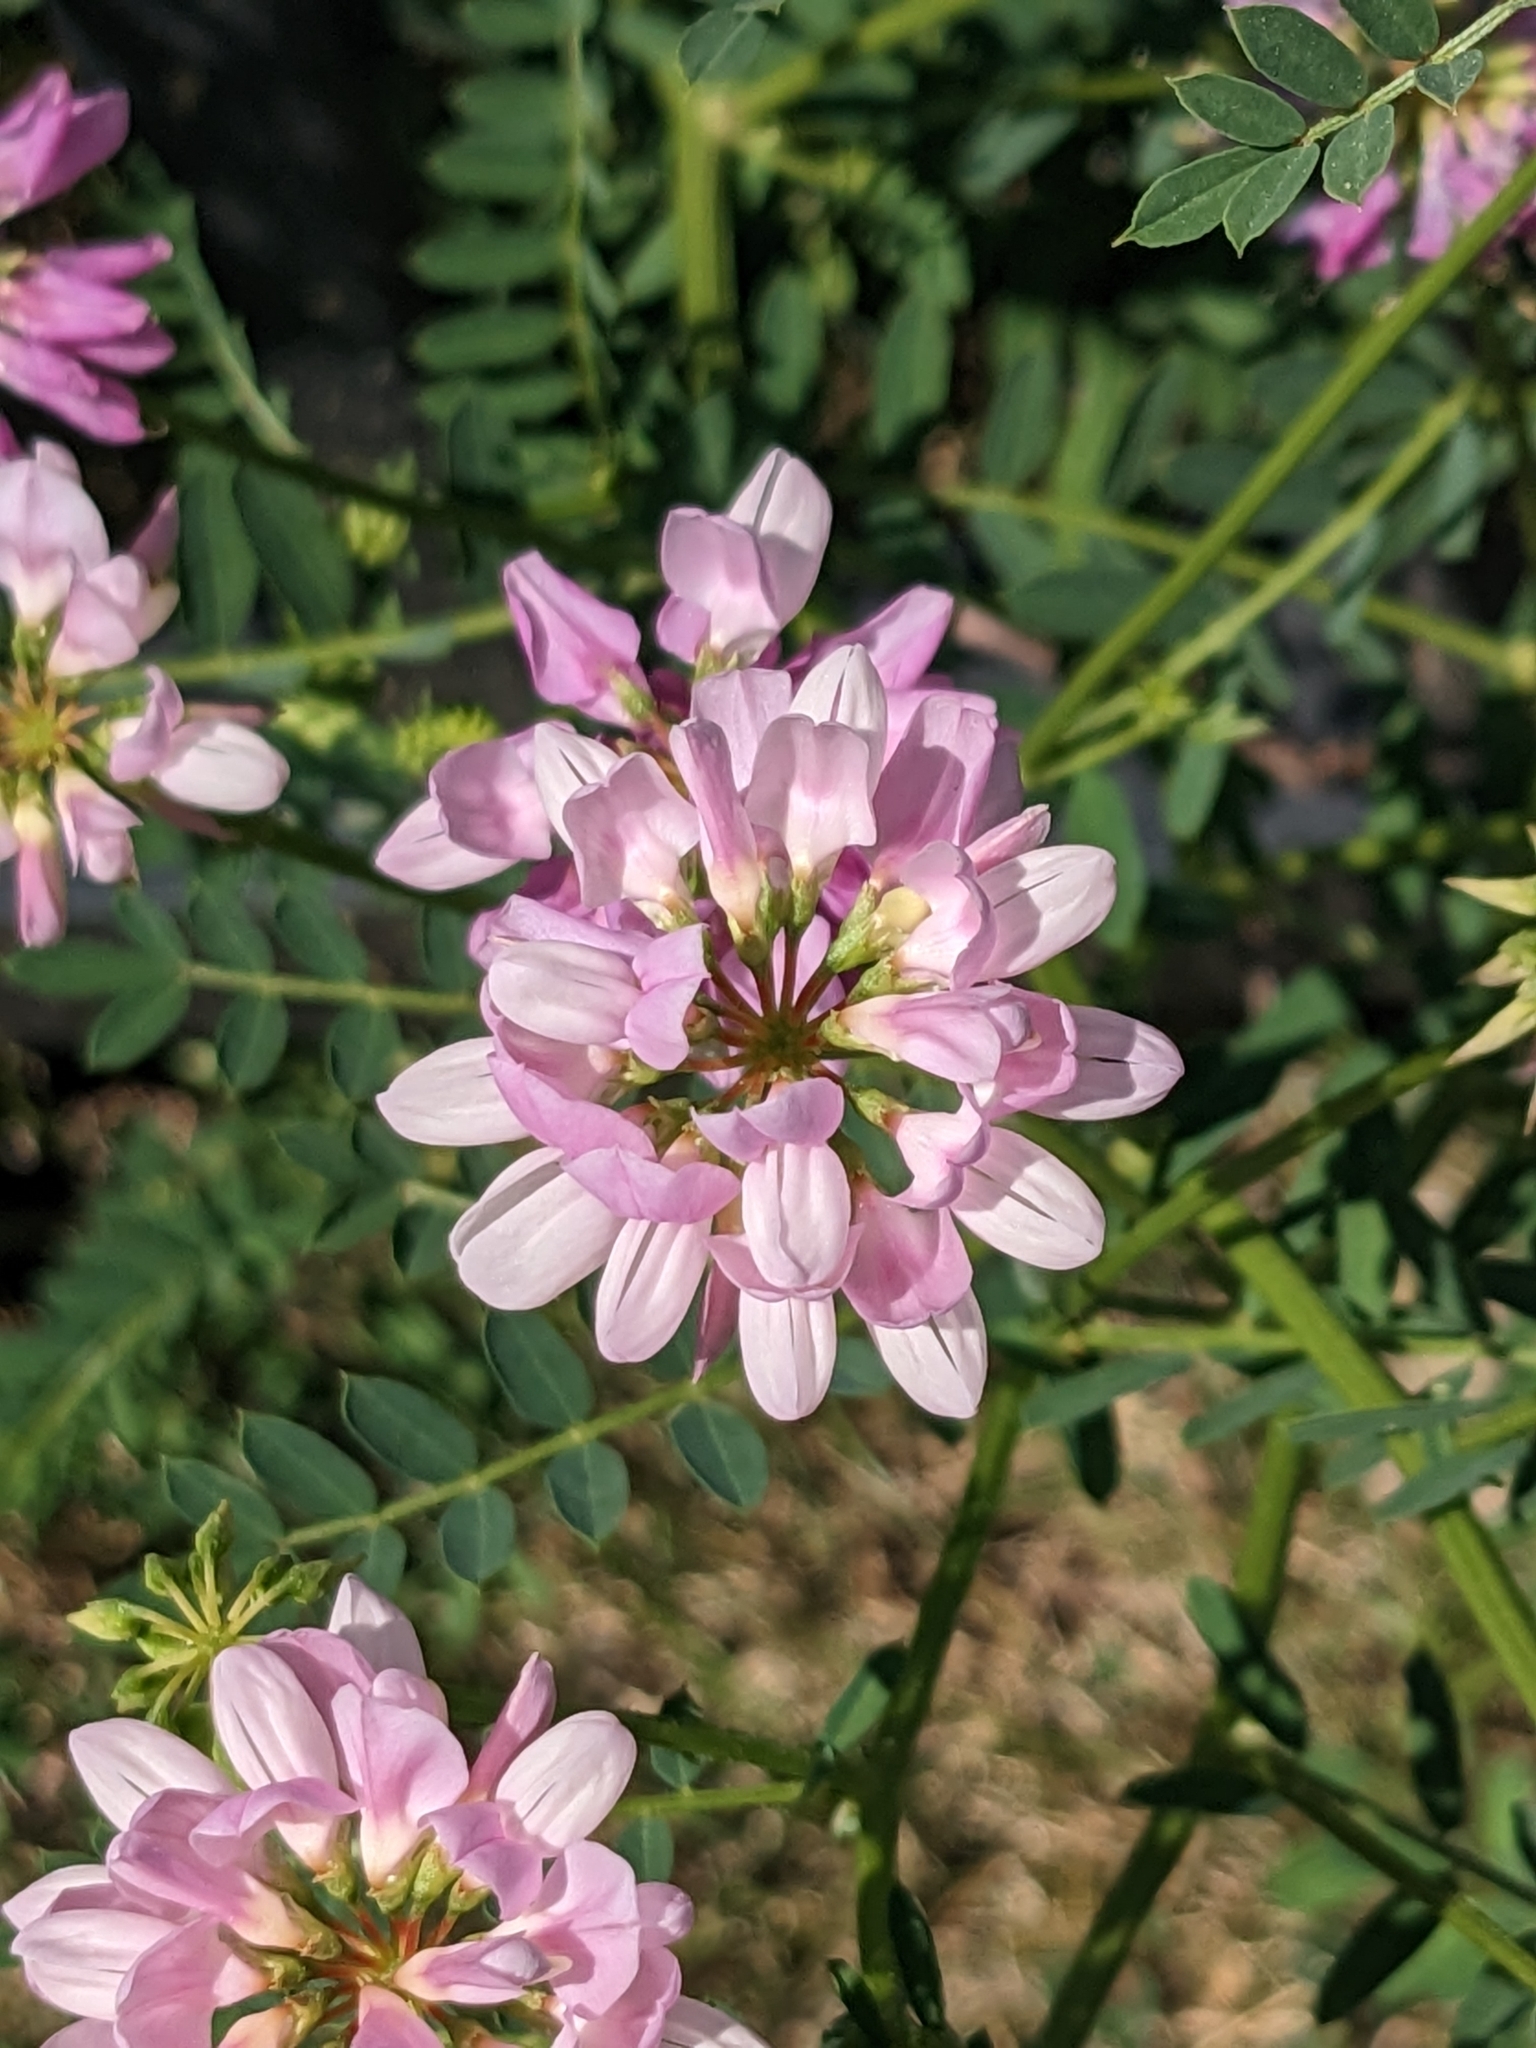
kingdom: Plantae
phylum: Tracheophyta
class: Magnoliopsida
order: Fabales
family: Fabaceae
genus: Coronilla
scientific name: Coronilla varia
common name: Crownvetch
